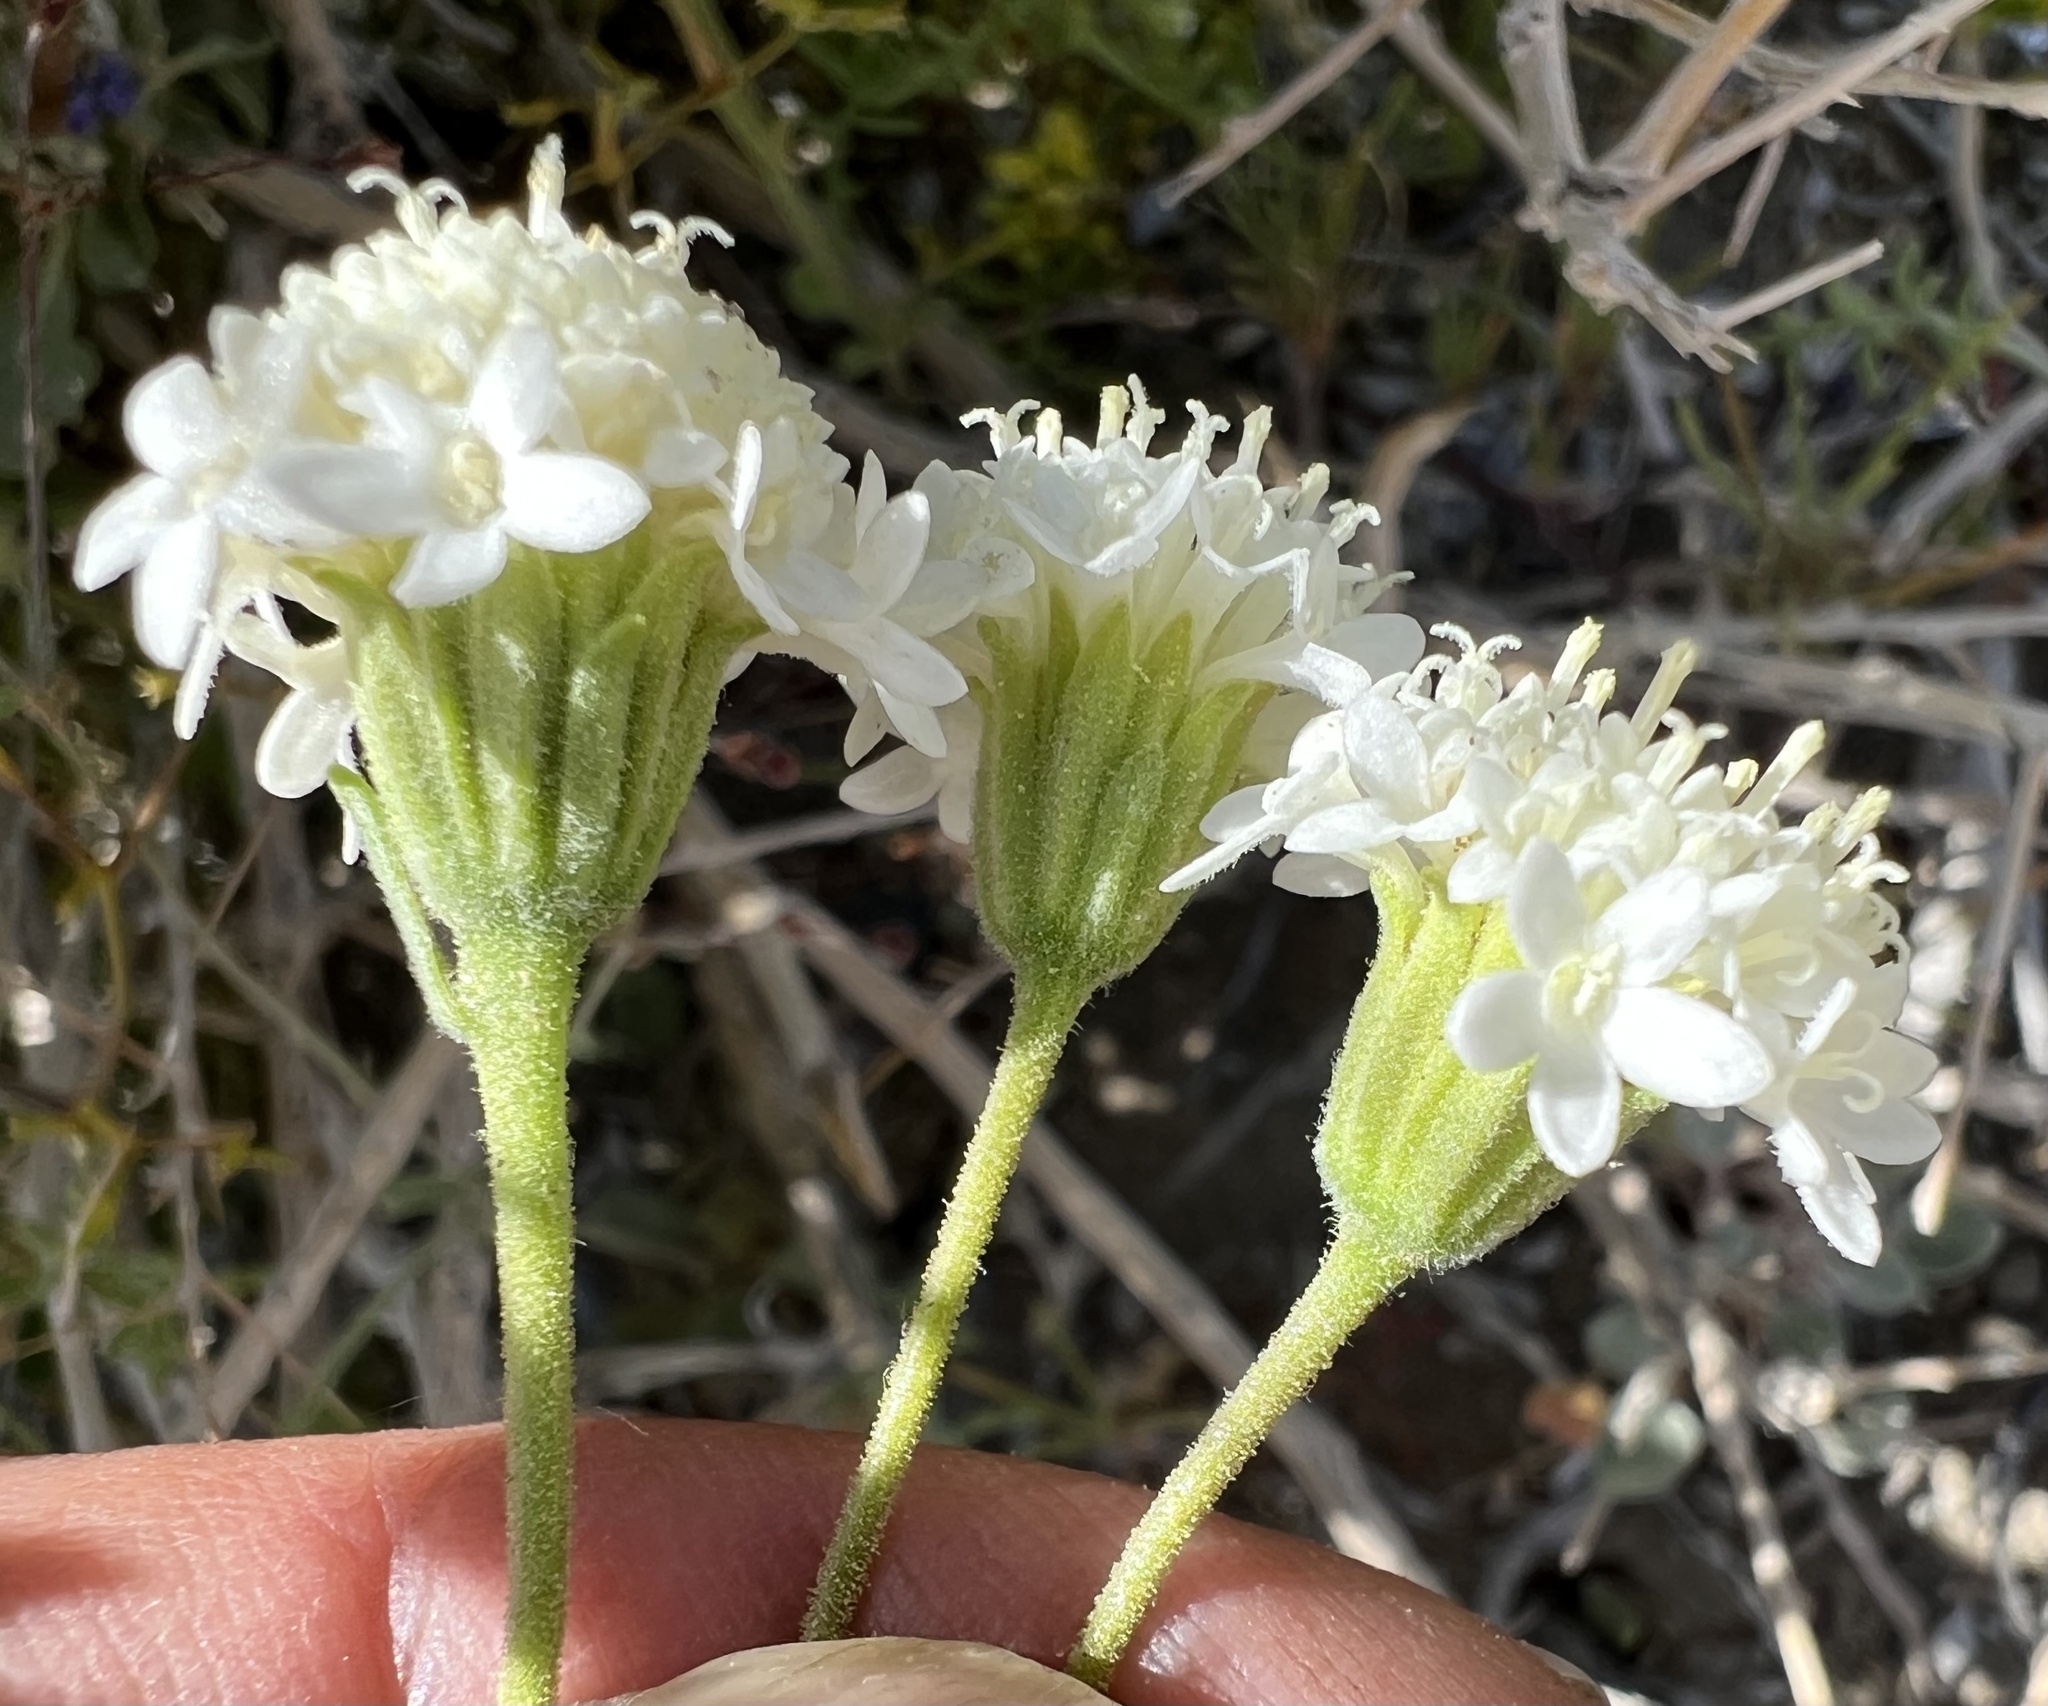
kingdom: Plantae
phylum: Tracheophyta
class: Magnoliopsida
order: Asterales
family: Asteraceae
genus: Chaenactis
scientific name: Chaenactis stevioides
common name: Desert pincushion
